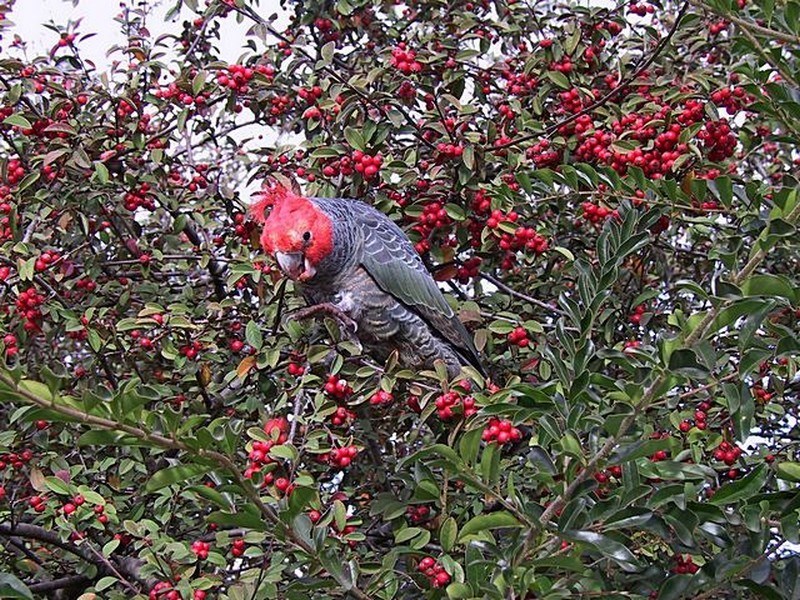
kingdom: Animalia
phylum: Chordata
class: Aves
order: Psittaciformes
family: Psittacidae
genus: Callocephalon
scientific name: Callocephalon fimbriatum
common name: Gang-gang cockatoo
